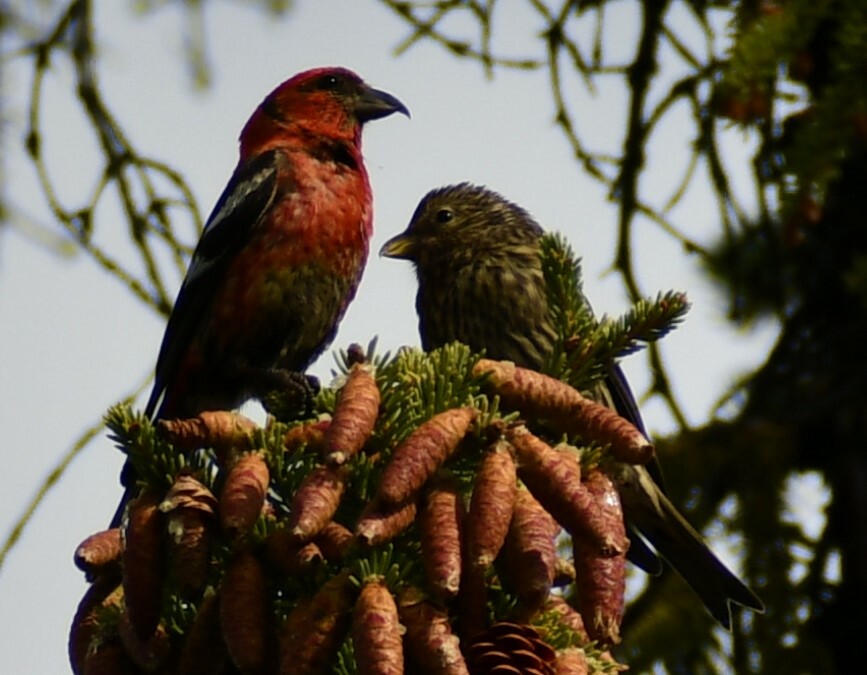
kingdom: Animalia
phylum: Chordata
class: Aves
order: Passeriformes
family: Fringillidae
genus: Loxia
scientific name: Loxia leucoptera
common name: Two-barred crossbill
